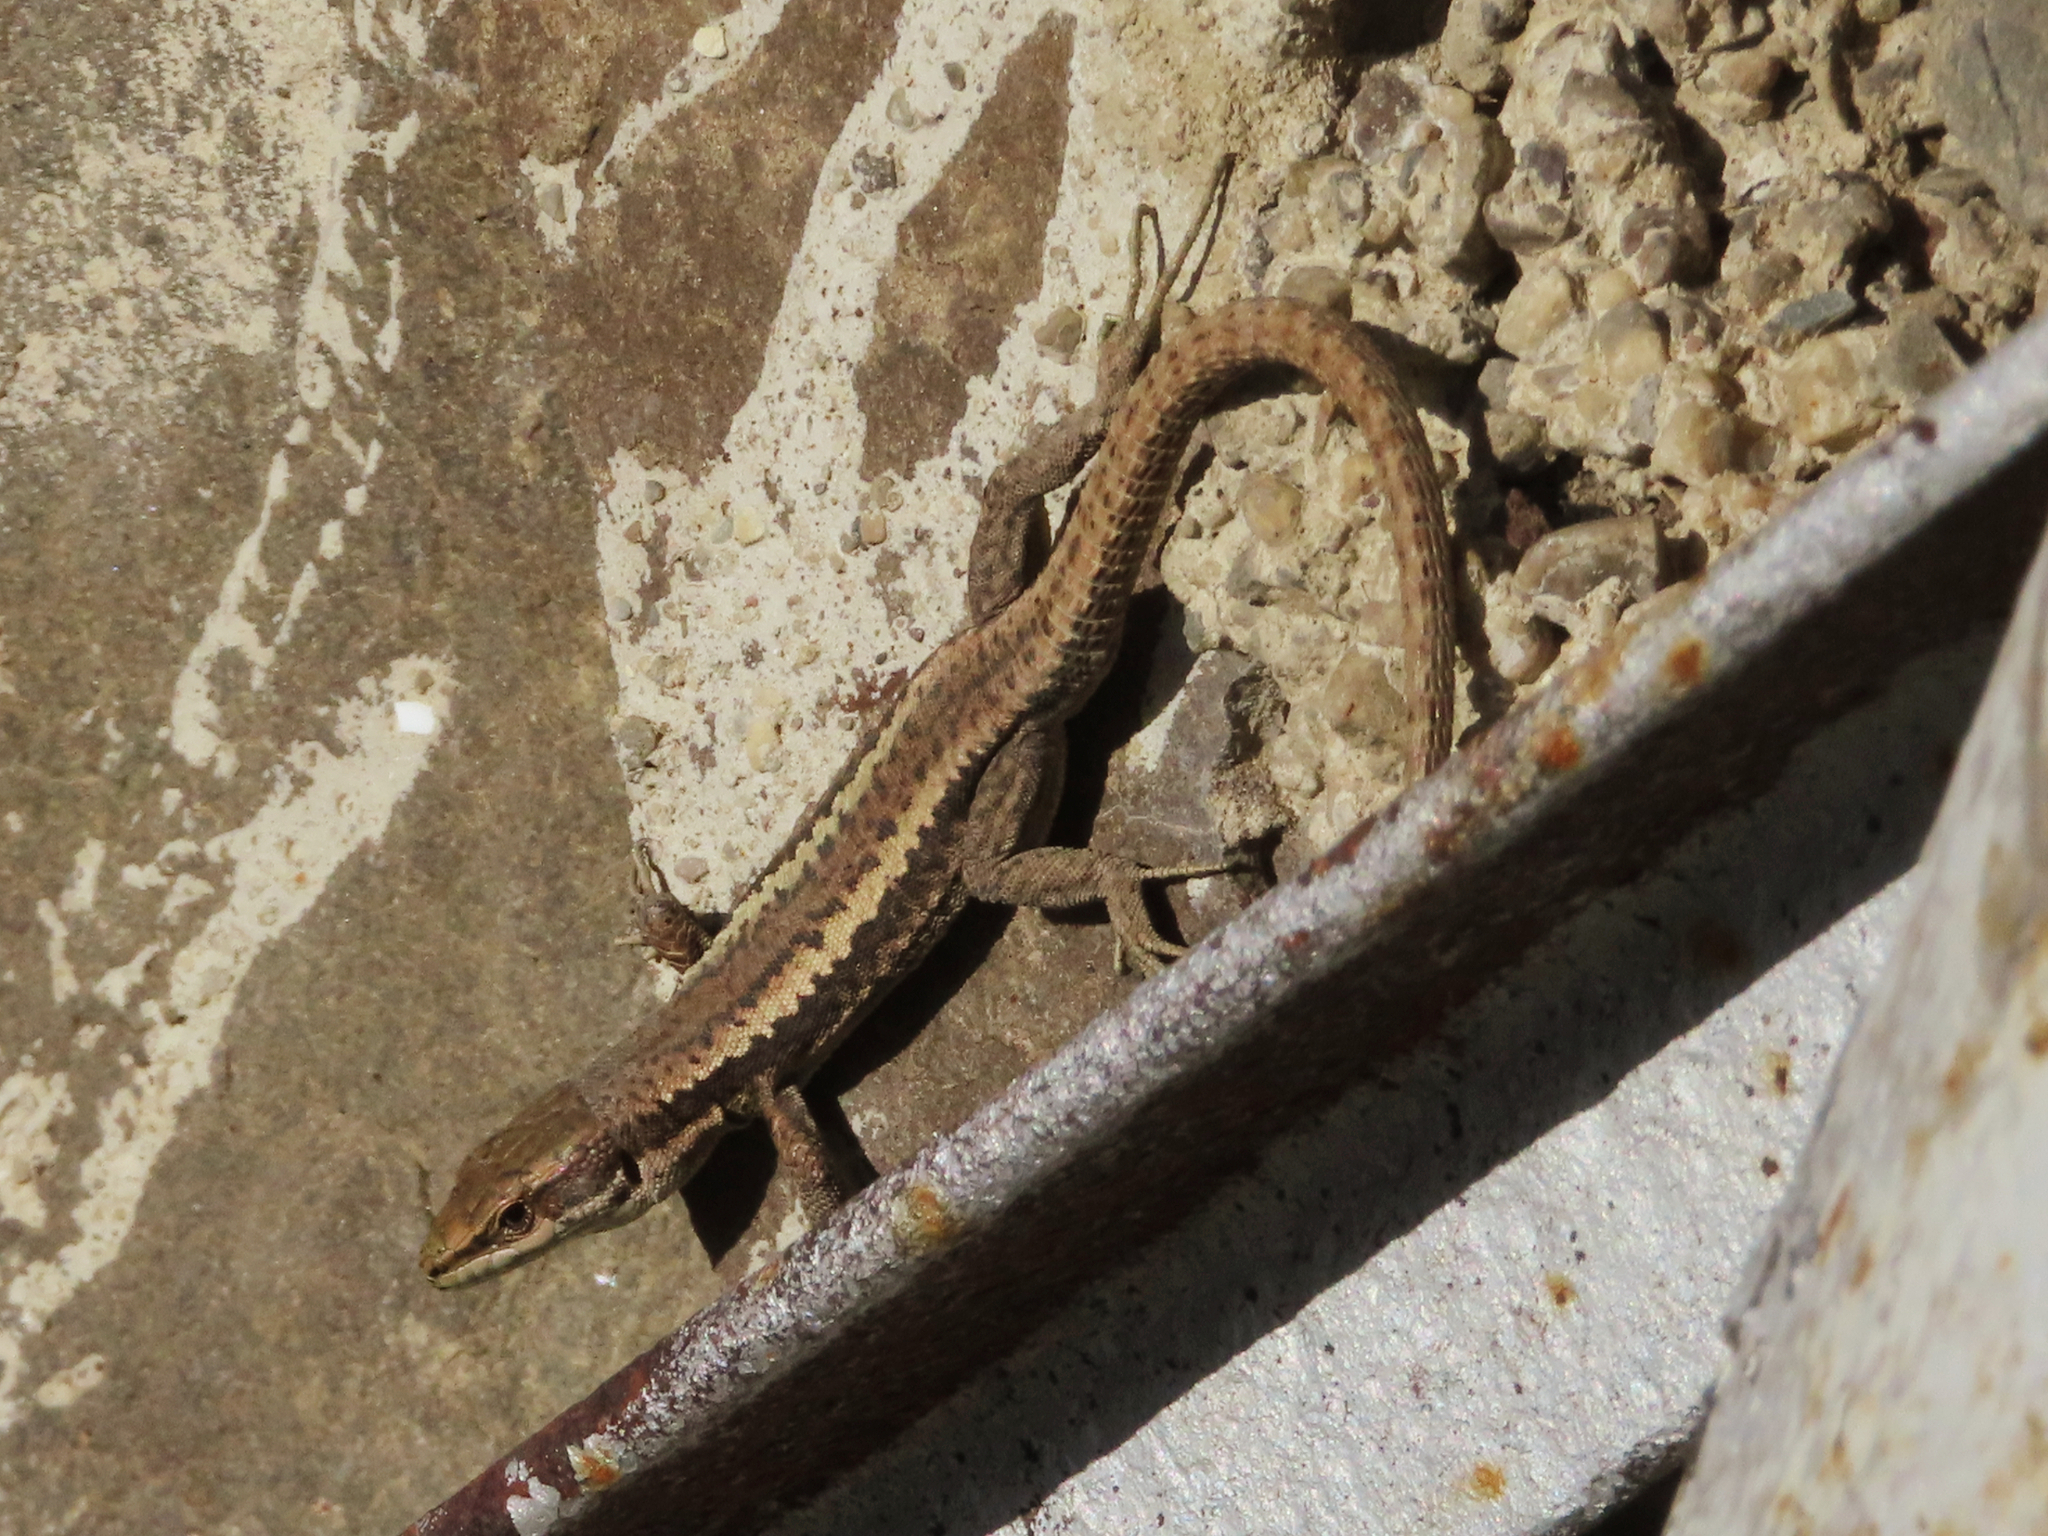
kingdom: Animalia
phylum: Chordata
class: Squamata
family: Lacertidae
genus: Darevskia
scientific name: Darevskia daghestanica
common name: Dagestan lizard
